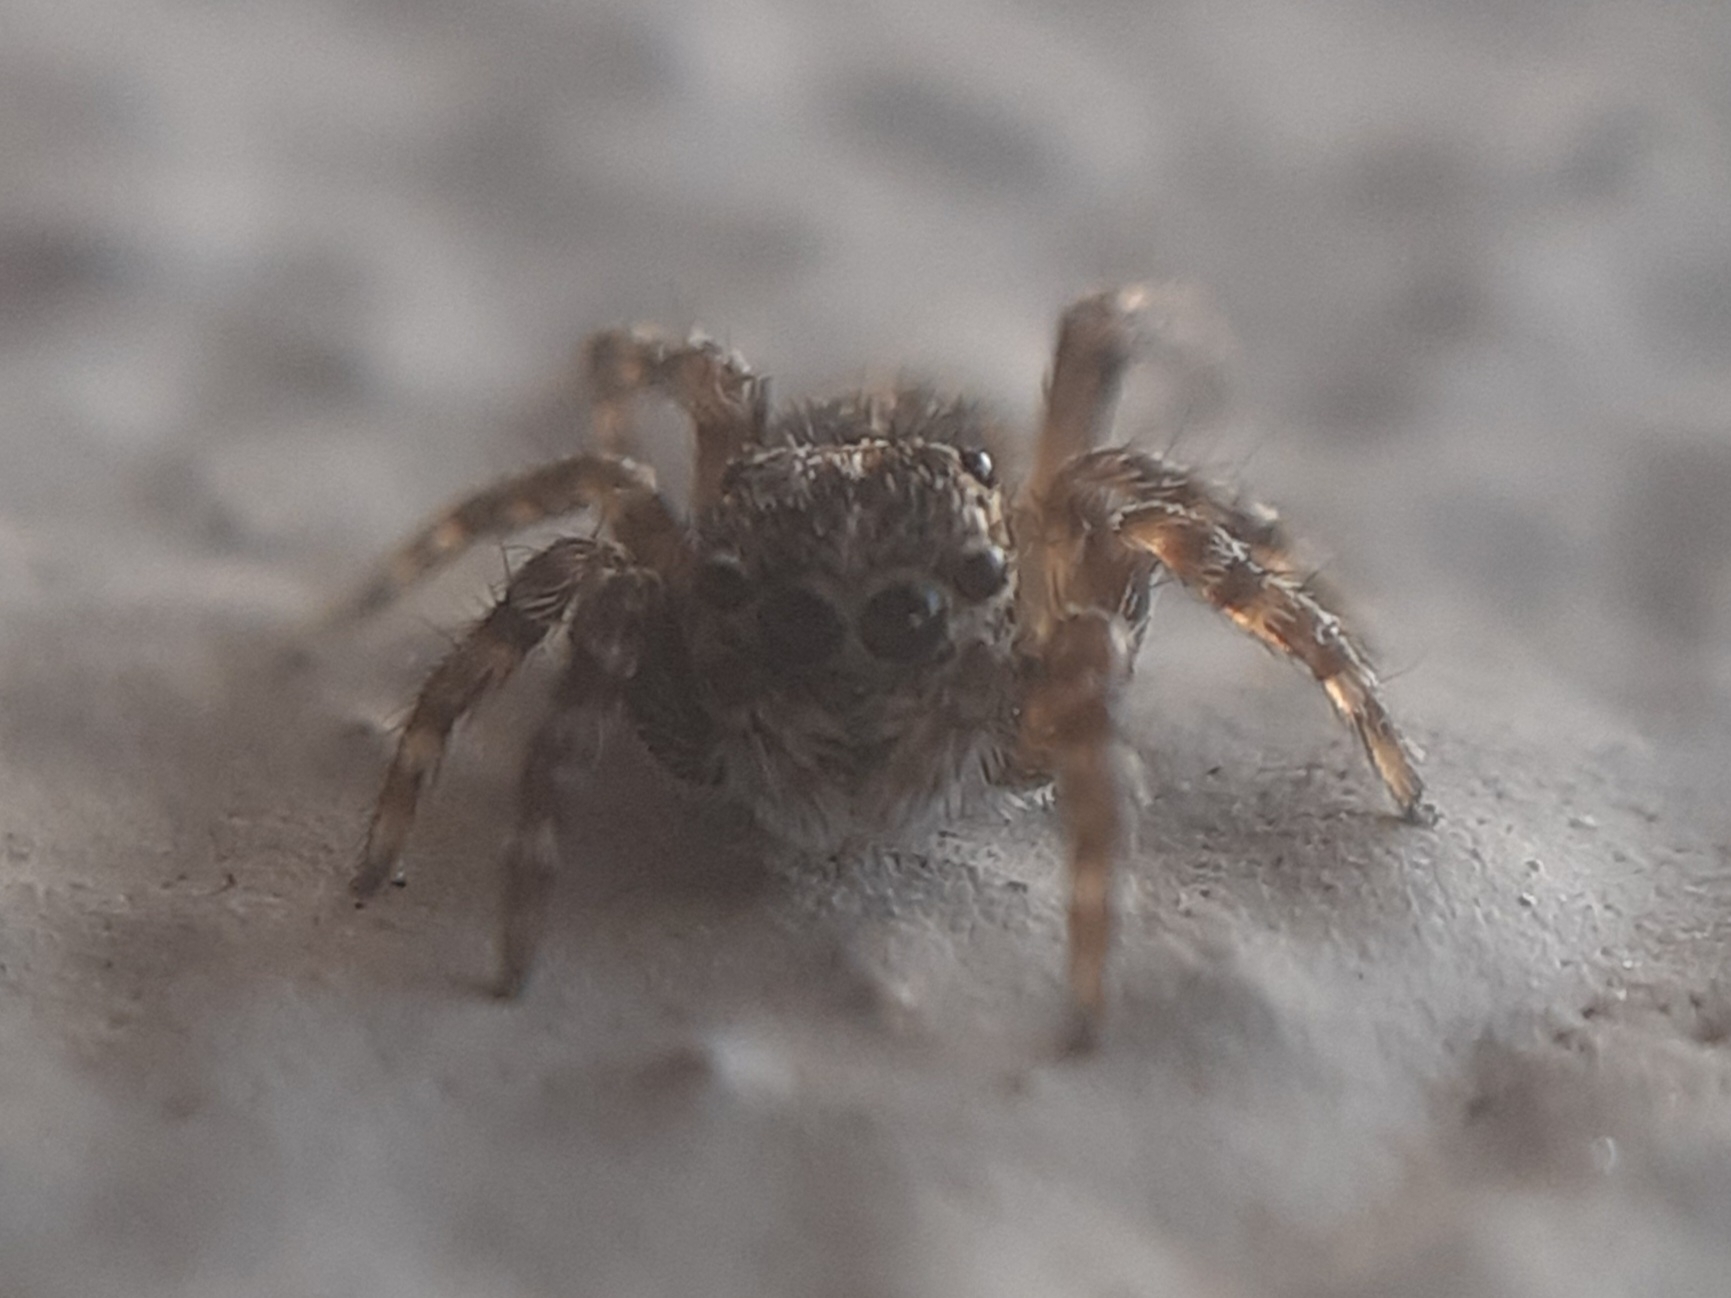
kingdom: Animalia
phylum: Arthropoda
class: Arachnida
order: Araneae
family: Salticidae
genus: Attulus
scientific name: Attulus pubescens
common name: Jumping spider
